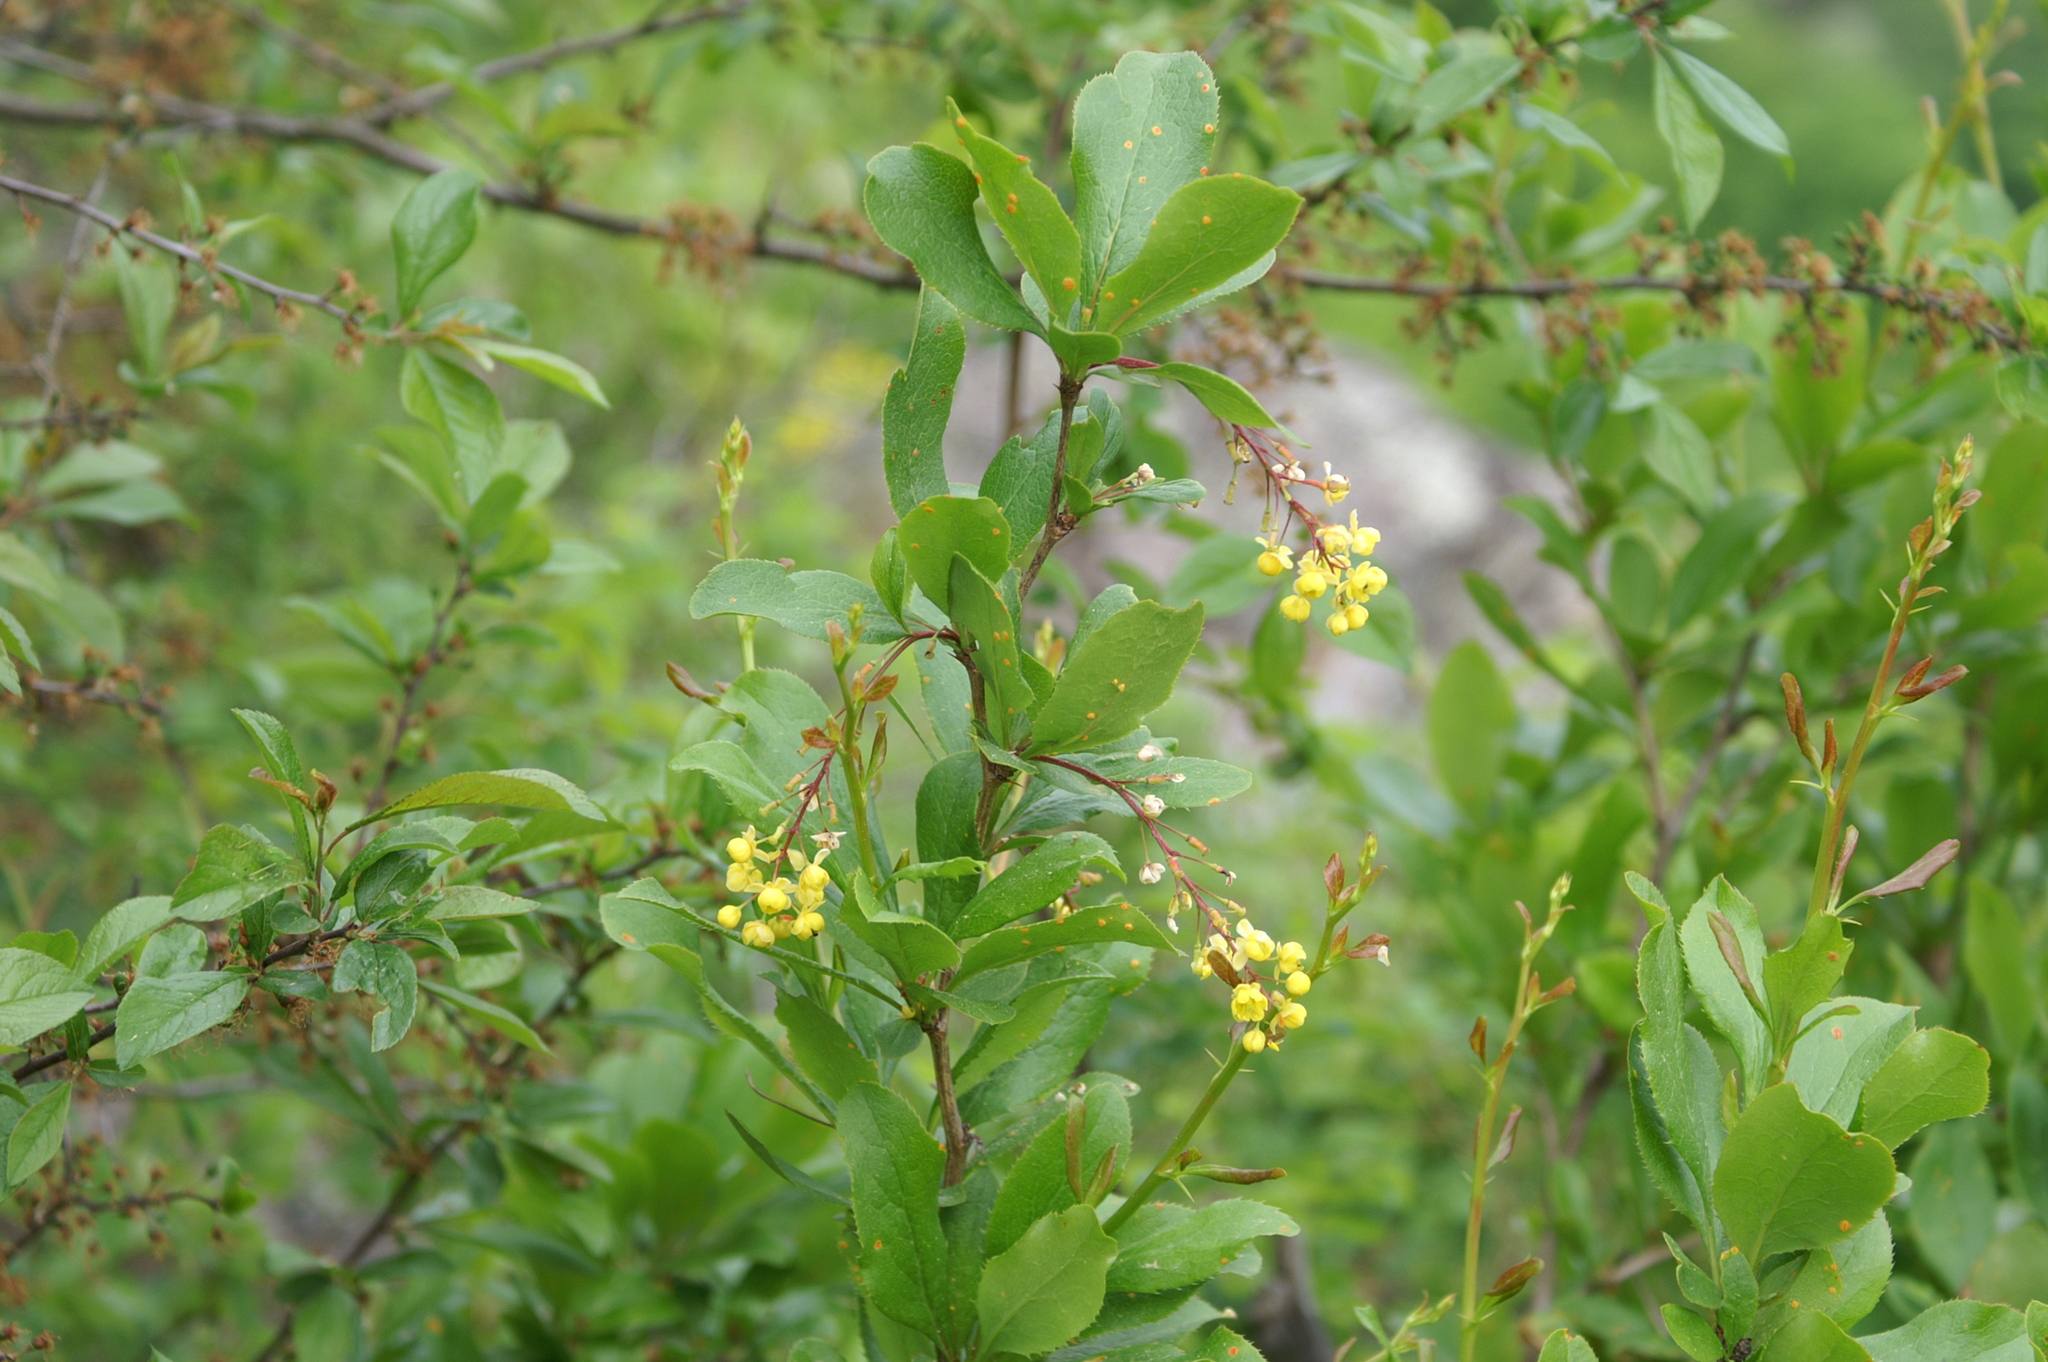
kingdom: Plantae
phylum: Tracheophyta
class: Magnoliopsida
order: Ranunculales
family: Berberidaceae
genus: Berberis
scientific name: Berberis vulgaris
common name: Barberry
